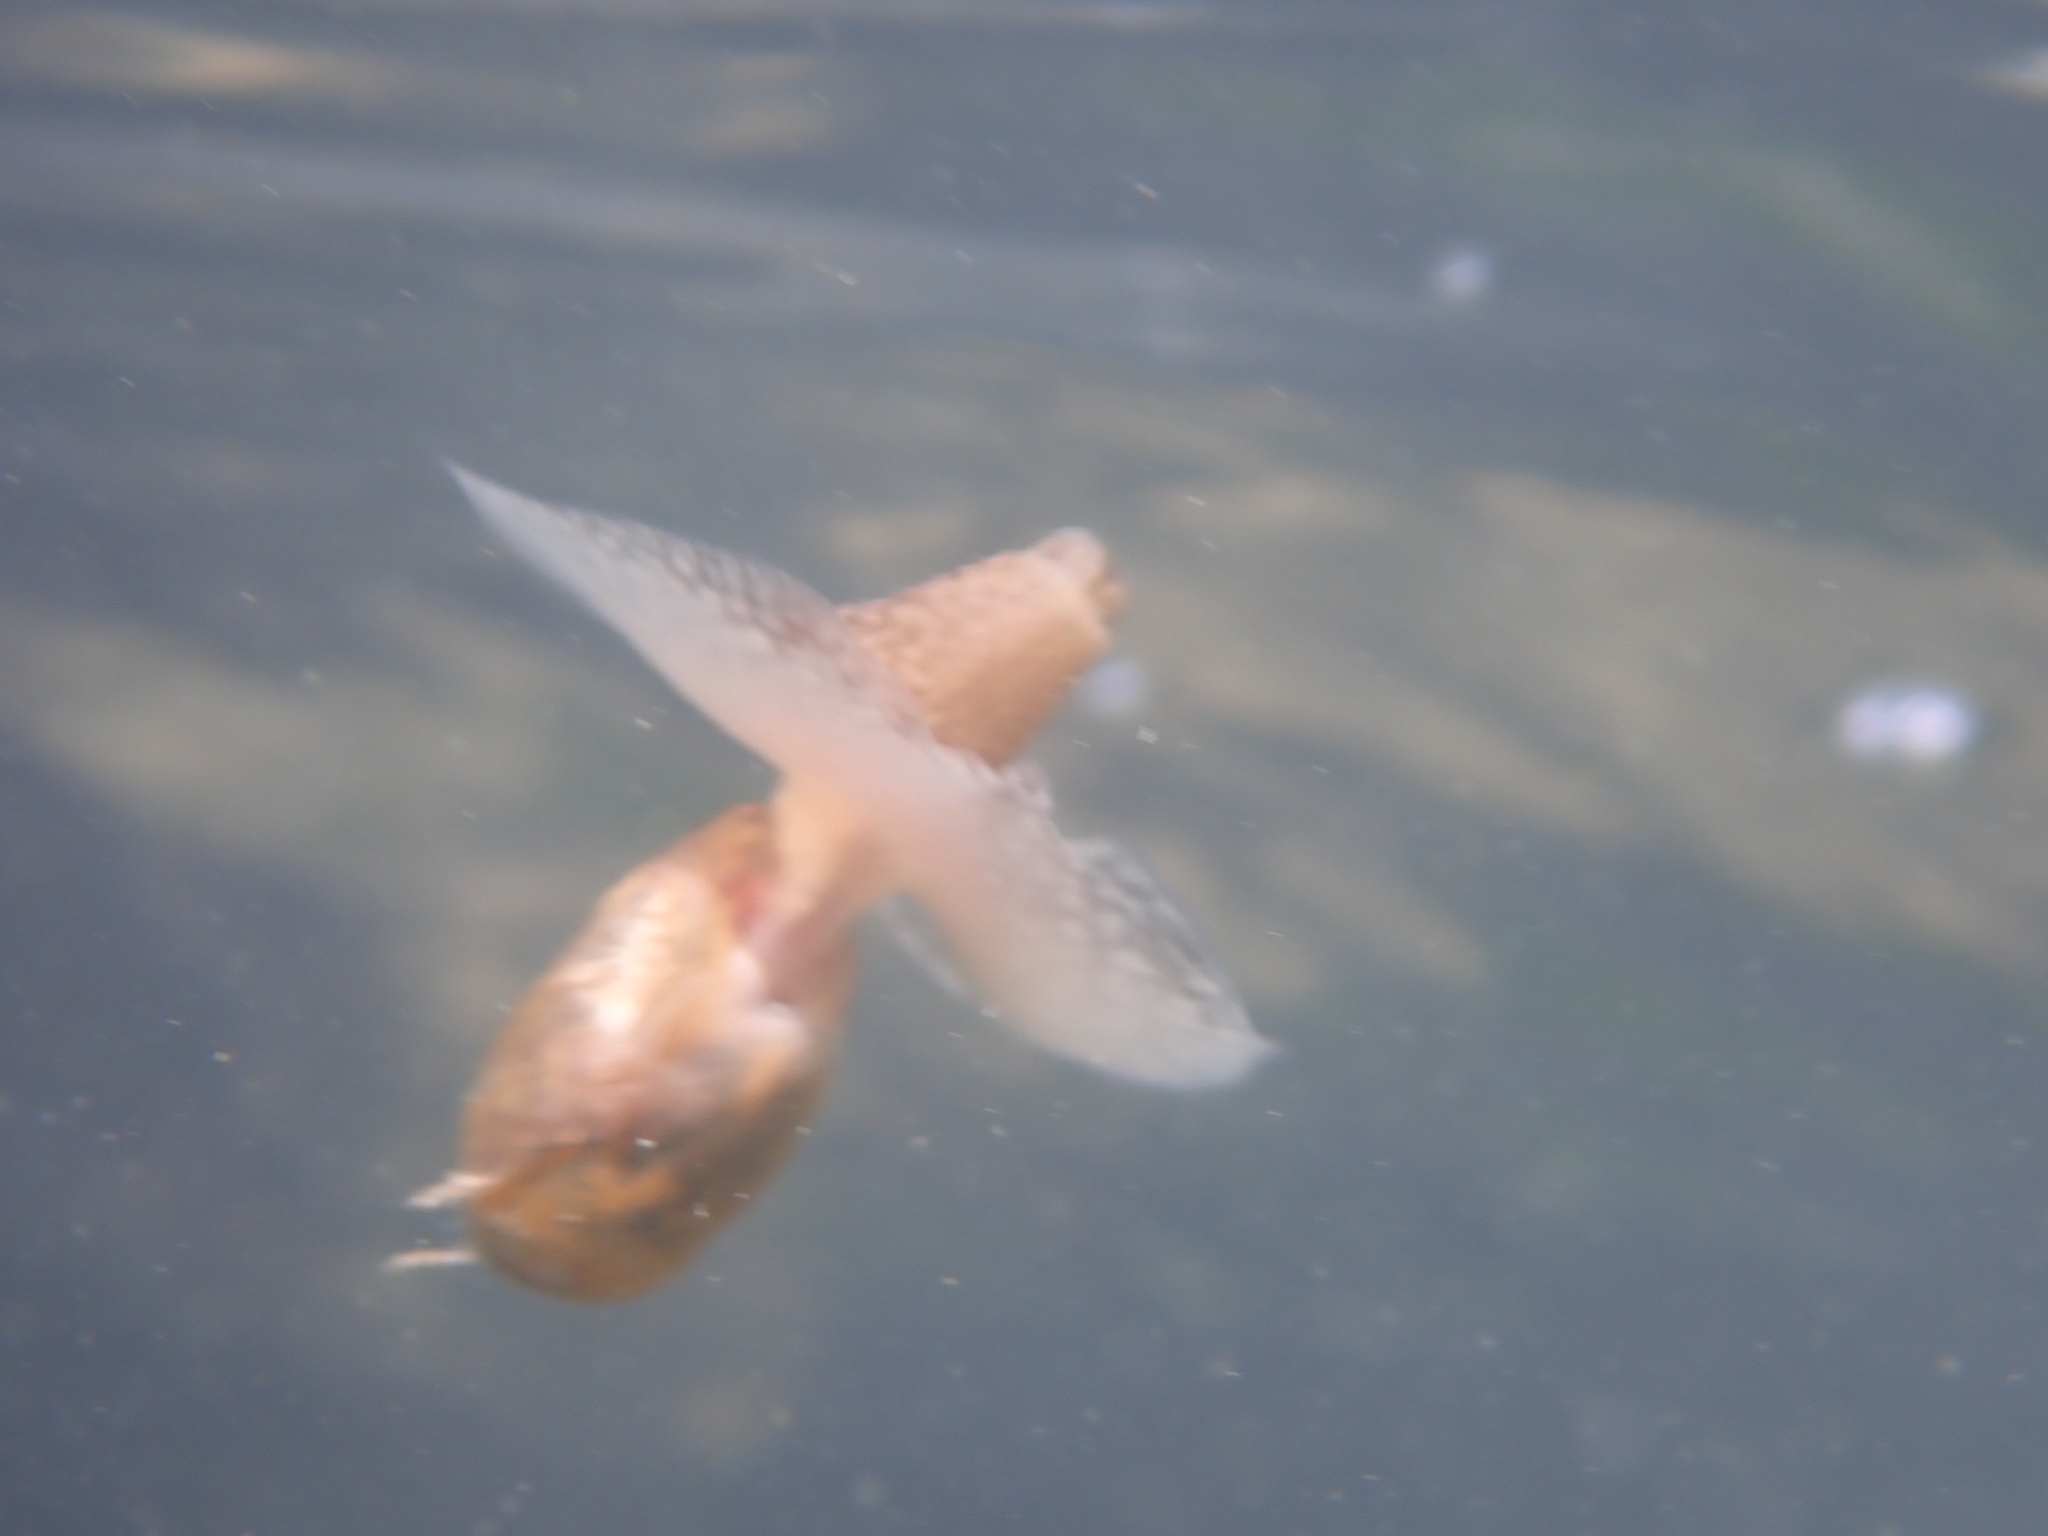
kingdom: Animalia
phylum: Mollusca
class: Gastropoda
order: Aplysiida
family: Akeridae
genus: Akera
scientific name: Akera bullata
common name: Common bubble snail
